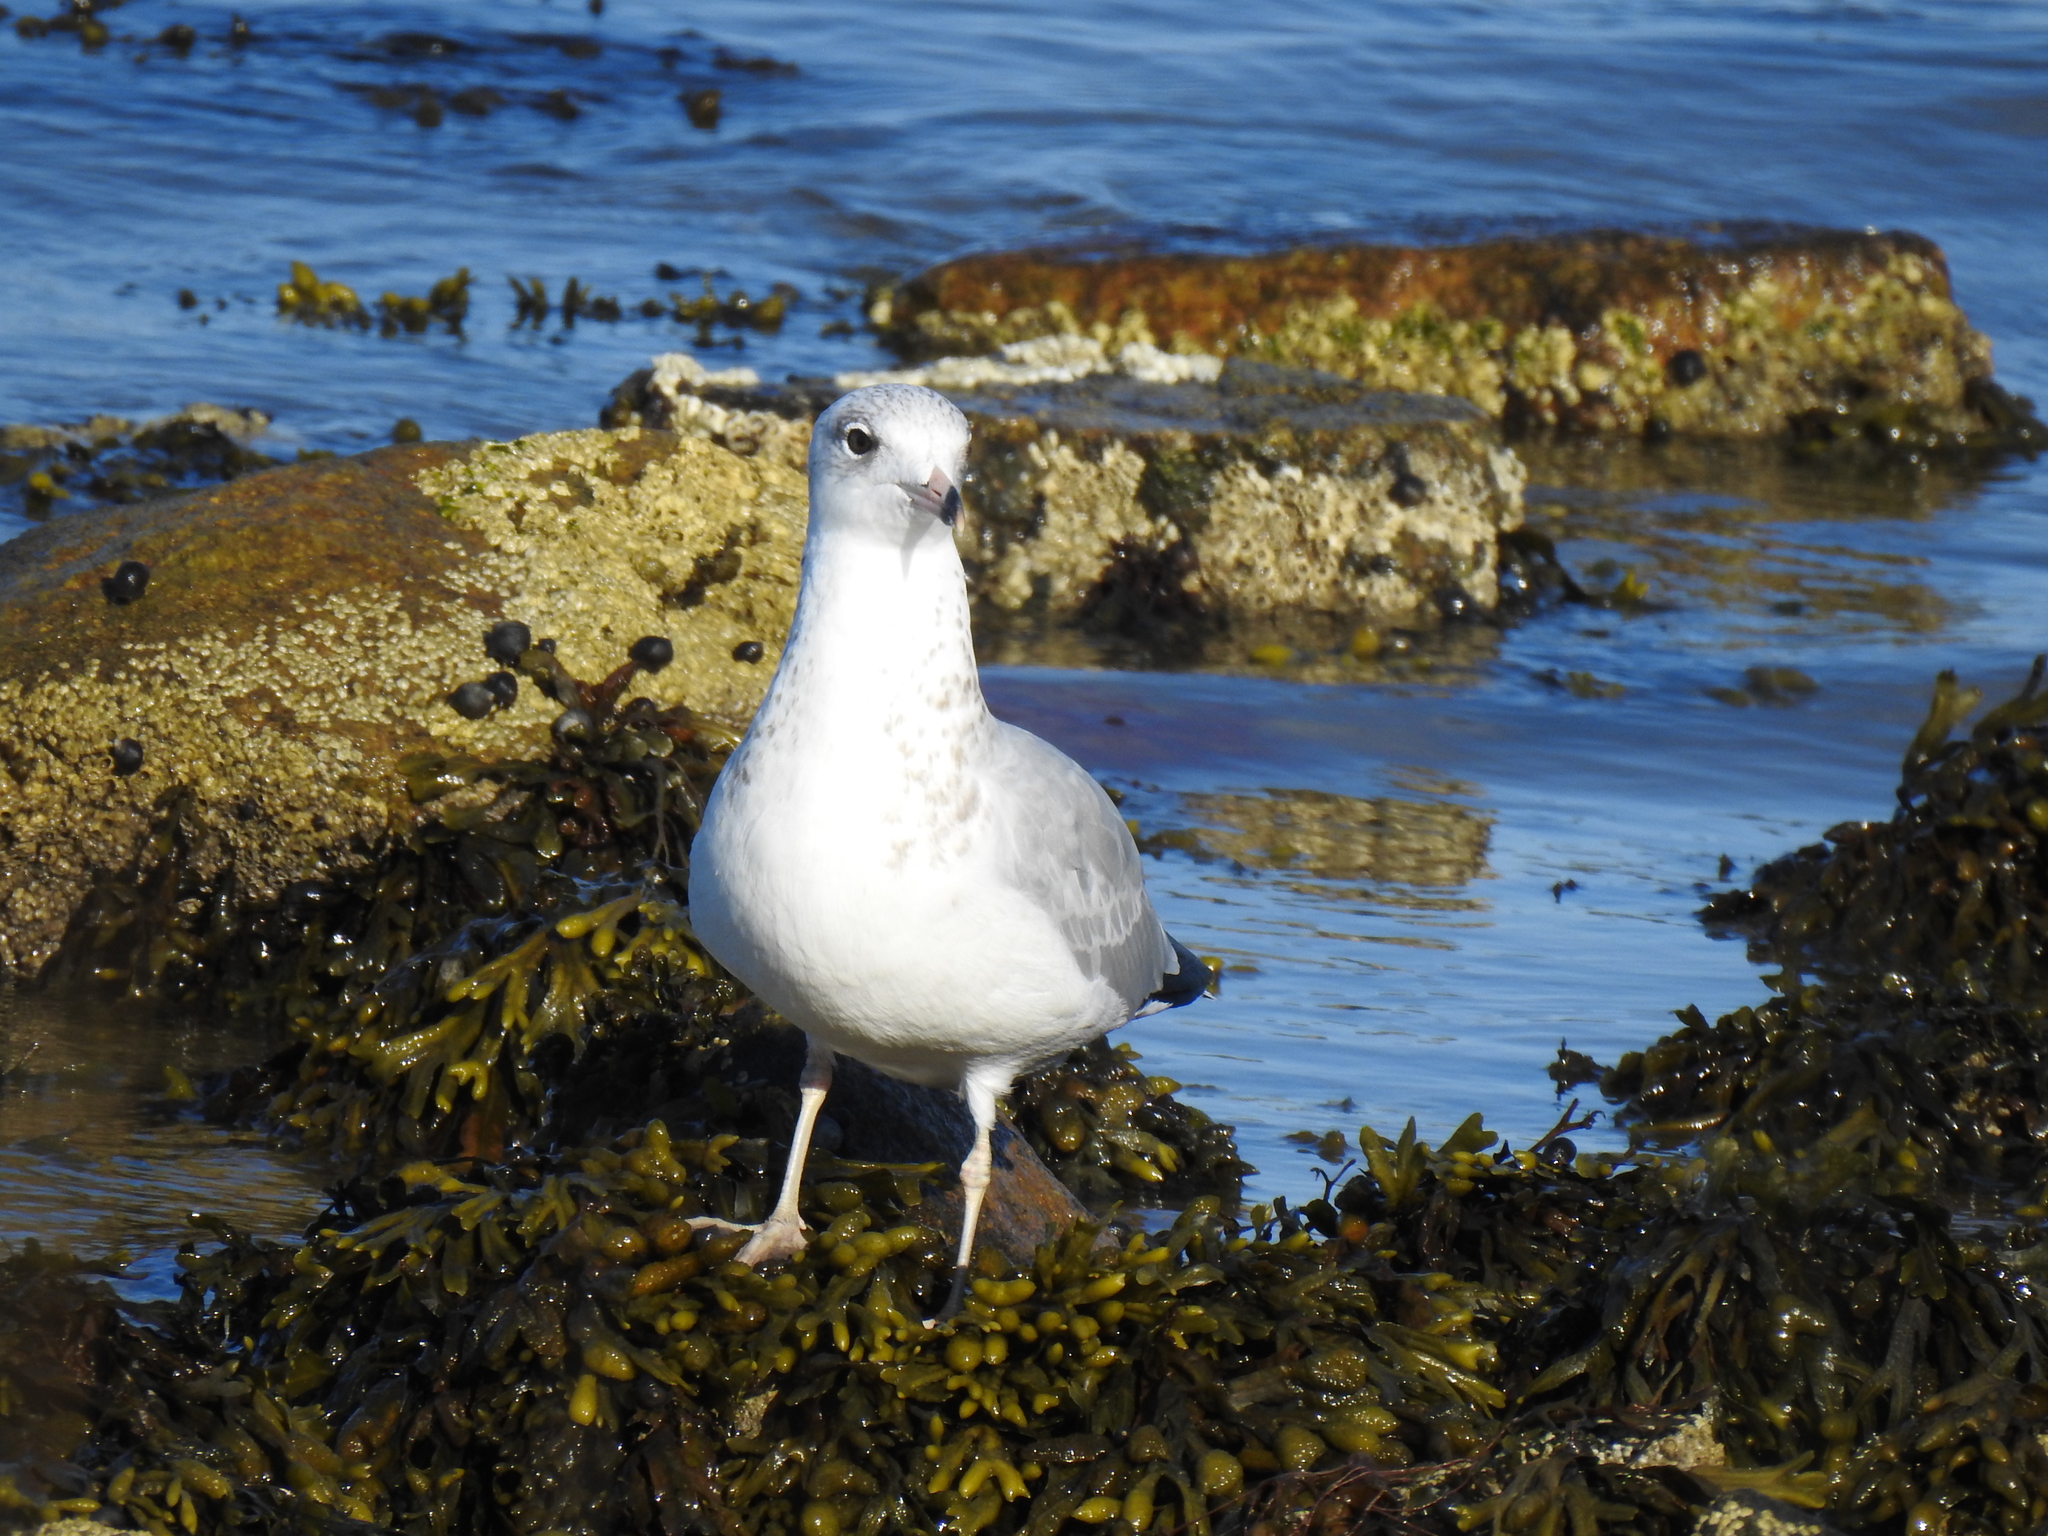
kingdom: Animalia
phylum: Chordata
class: Aves
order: Charadriiformes
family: Laridae
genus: Larus
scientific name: Larus delawarensis
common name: Ring-billed gull
